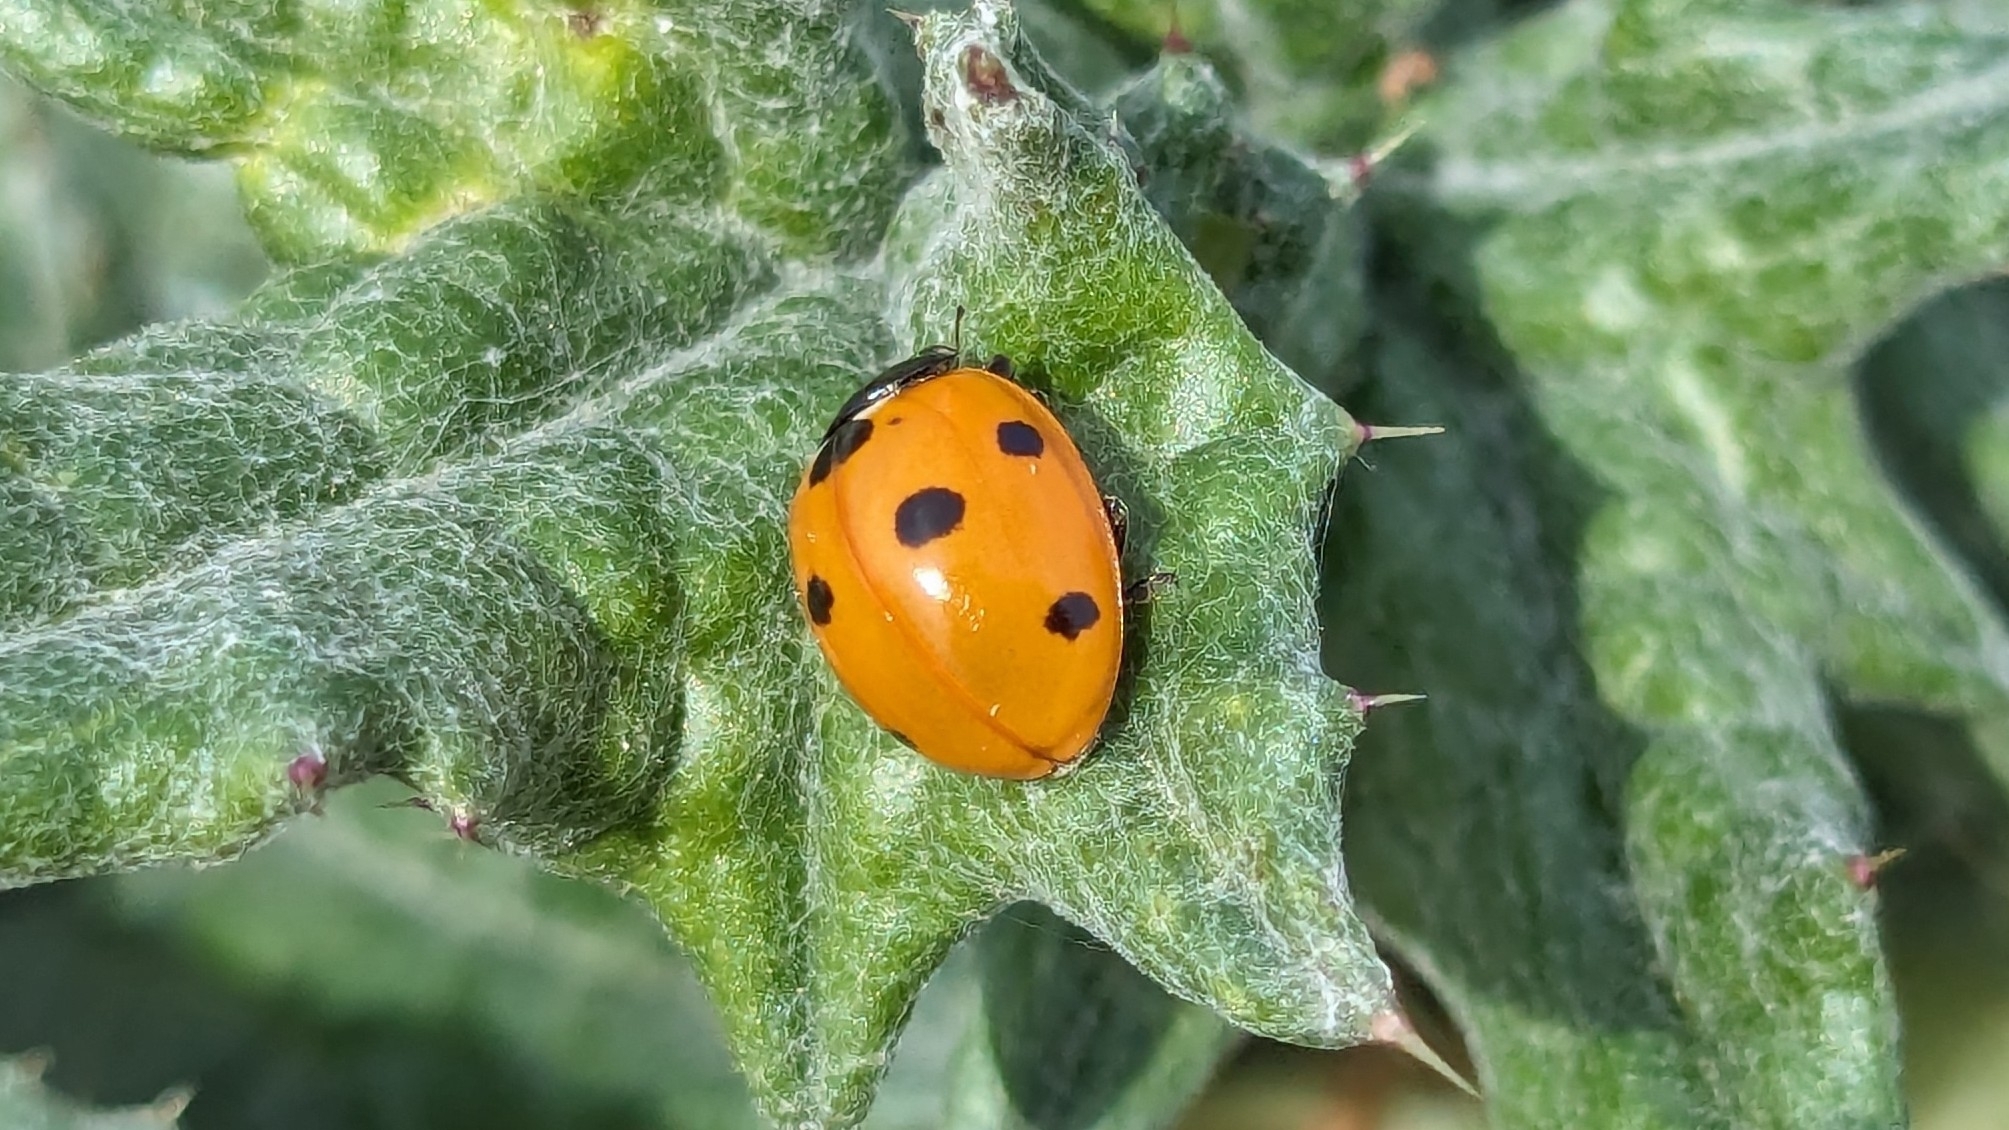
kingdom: Animalia
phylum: Arthropoda
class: Insecta
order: Coleoptera
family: Coccinellidae
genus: Coccinella
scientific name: Coccinella septempunctata
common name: Sevenspotted lady beetle
